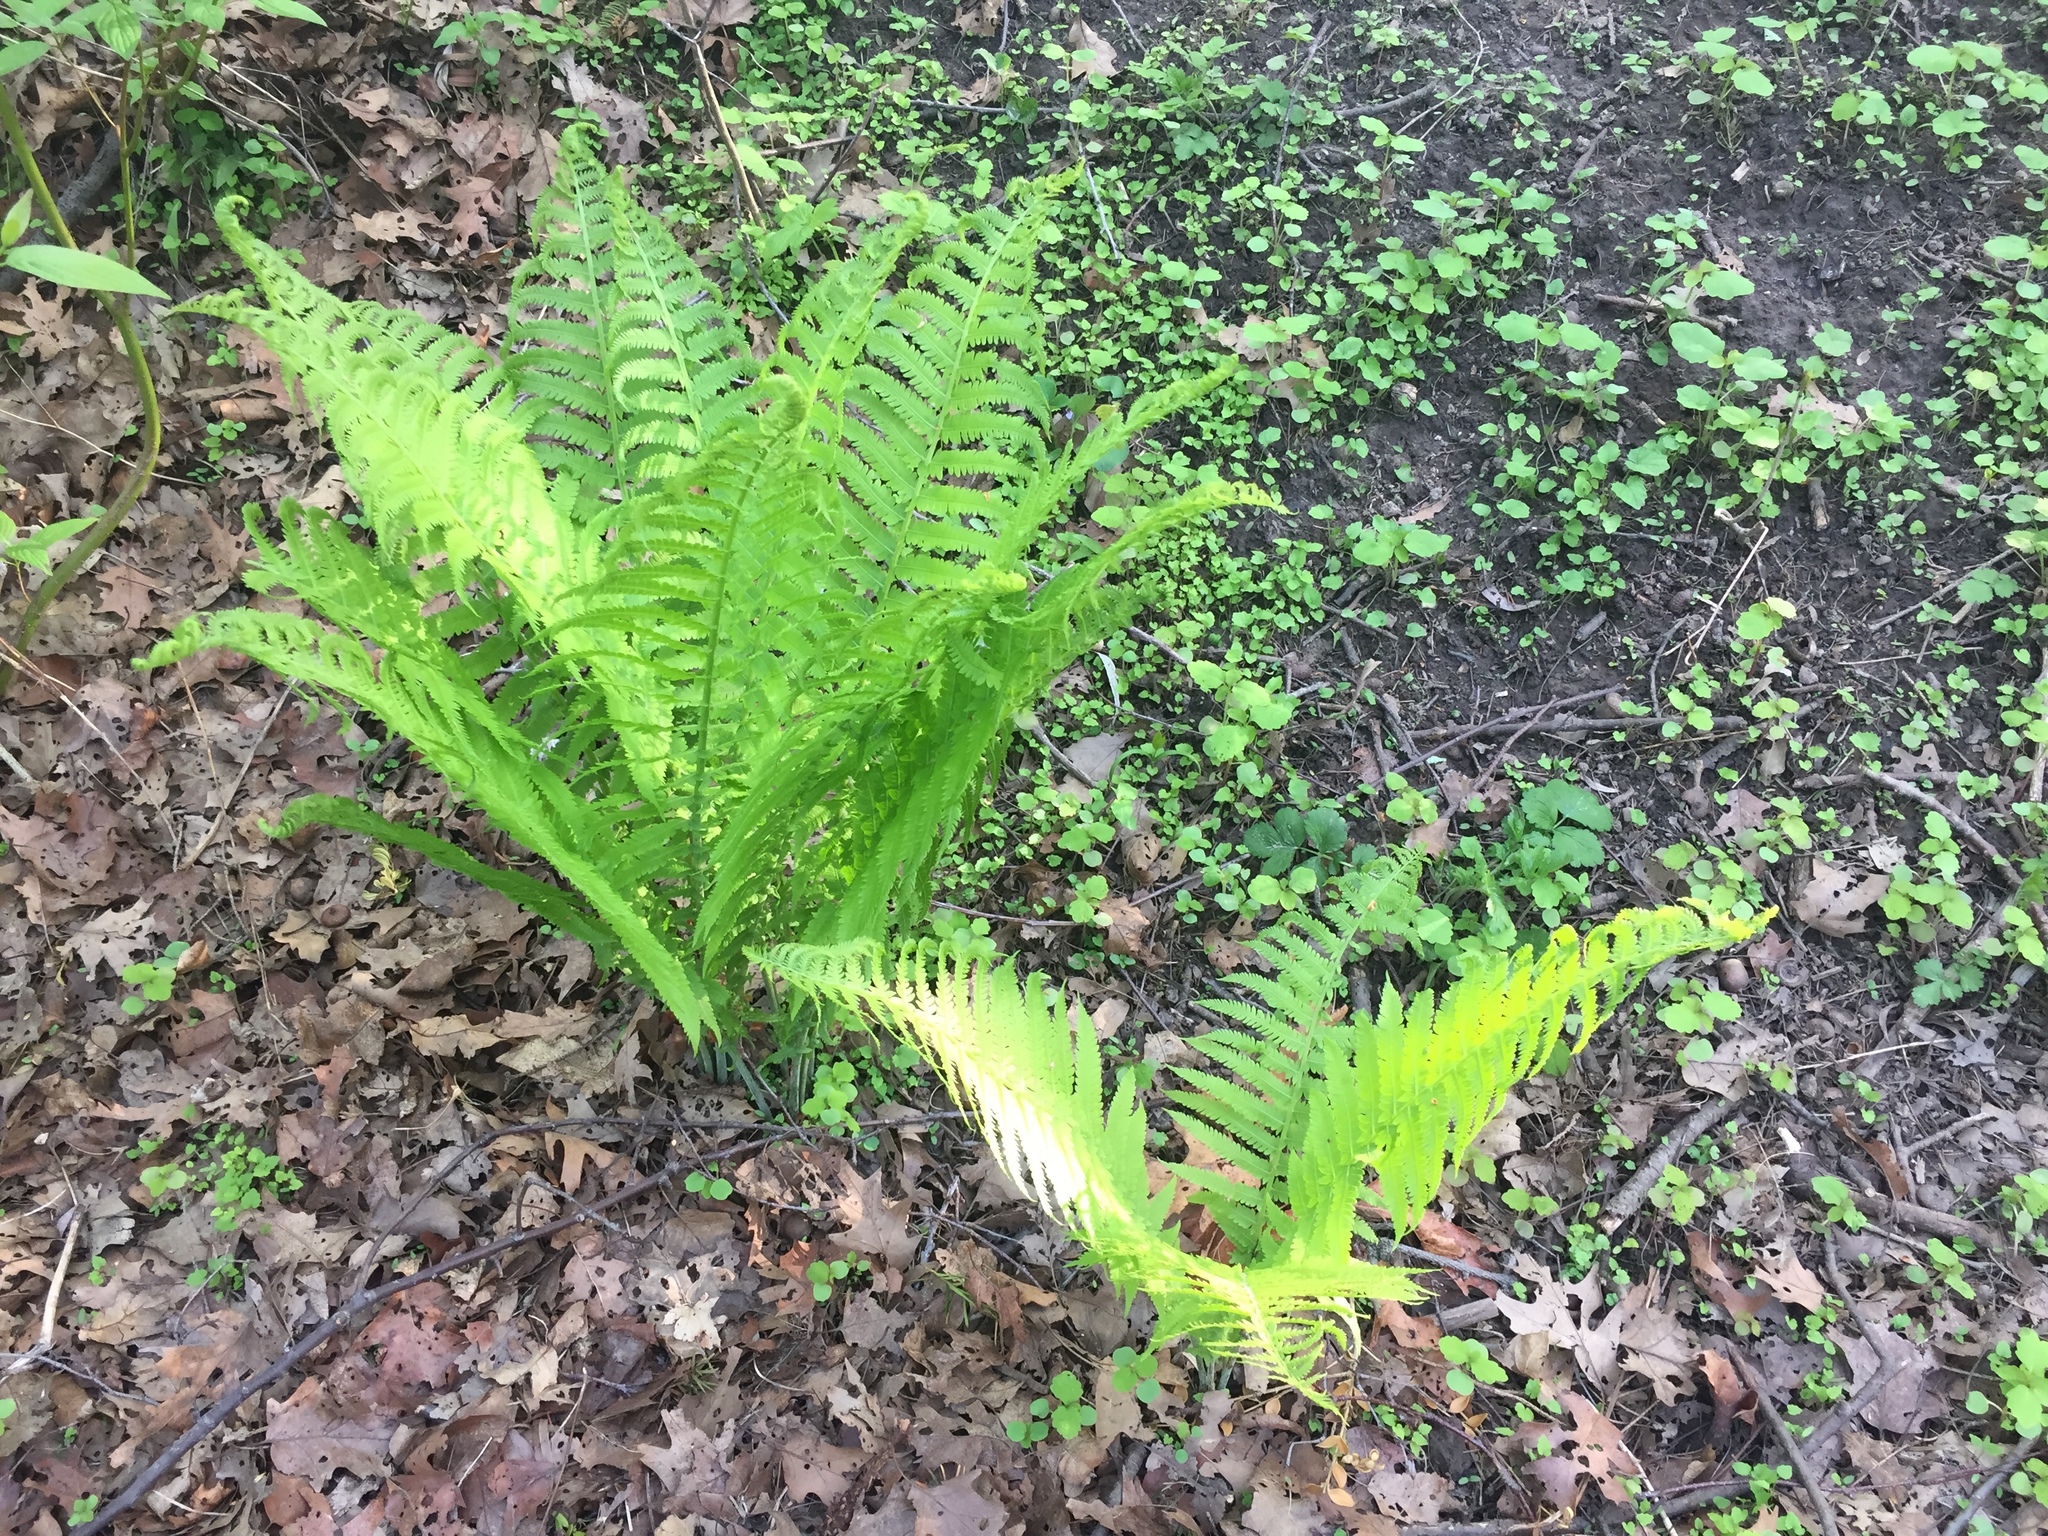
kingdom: Plantae
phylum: Tracheophyta
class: Polypodiopsida
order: Polypodiales
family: Onocleaceae
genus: Matteuccia
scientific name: Matteuccia struthiopteris
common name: Ostrich fern
